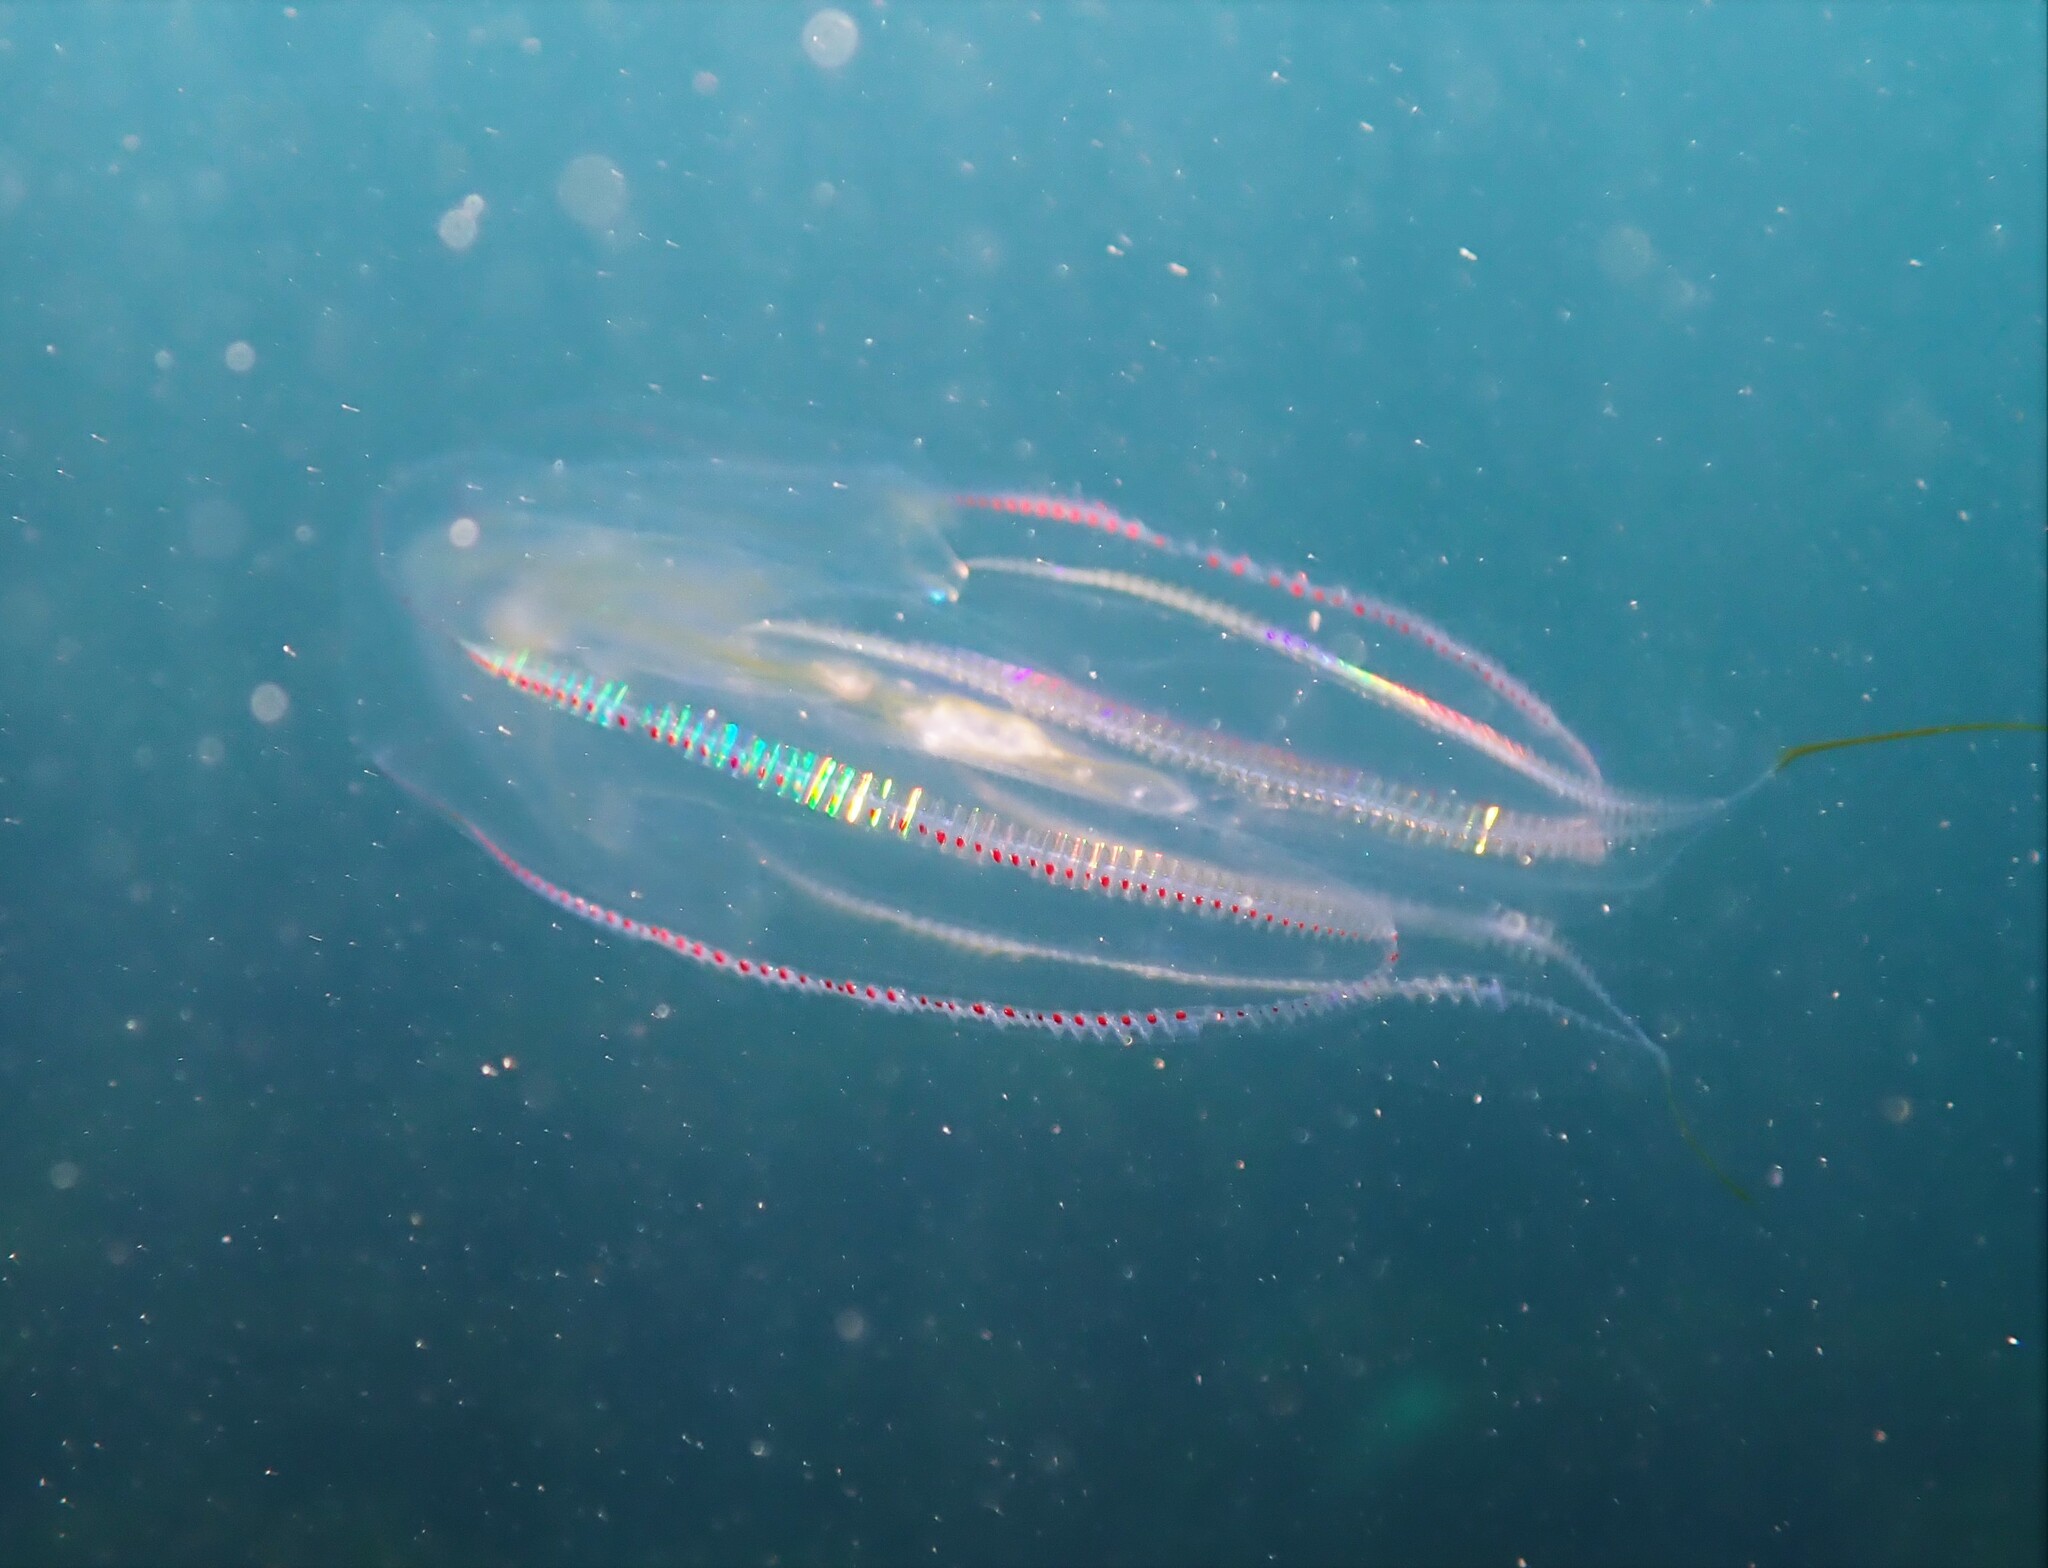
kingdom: Animalia
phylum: Ctenophora
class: Tentaculata
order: Lobata
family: Eurhamphaeidae
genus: Eurhamphaea
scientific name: Eurhamphaea vexilligera
